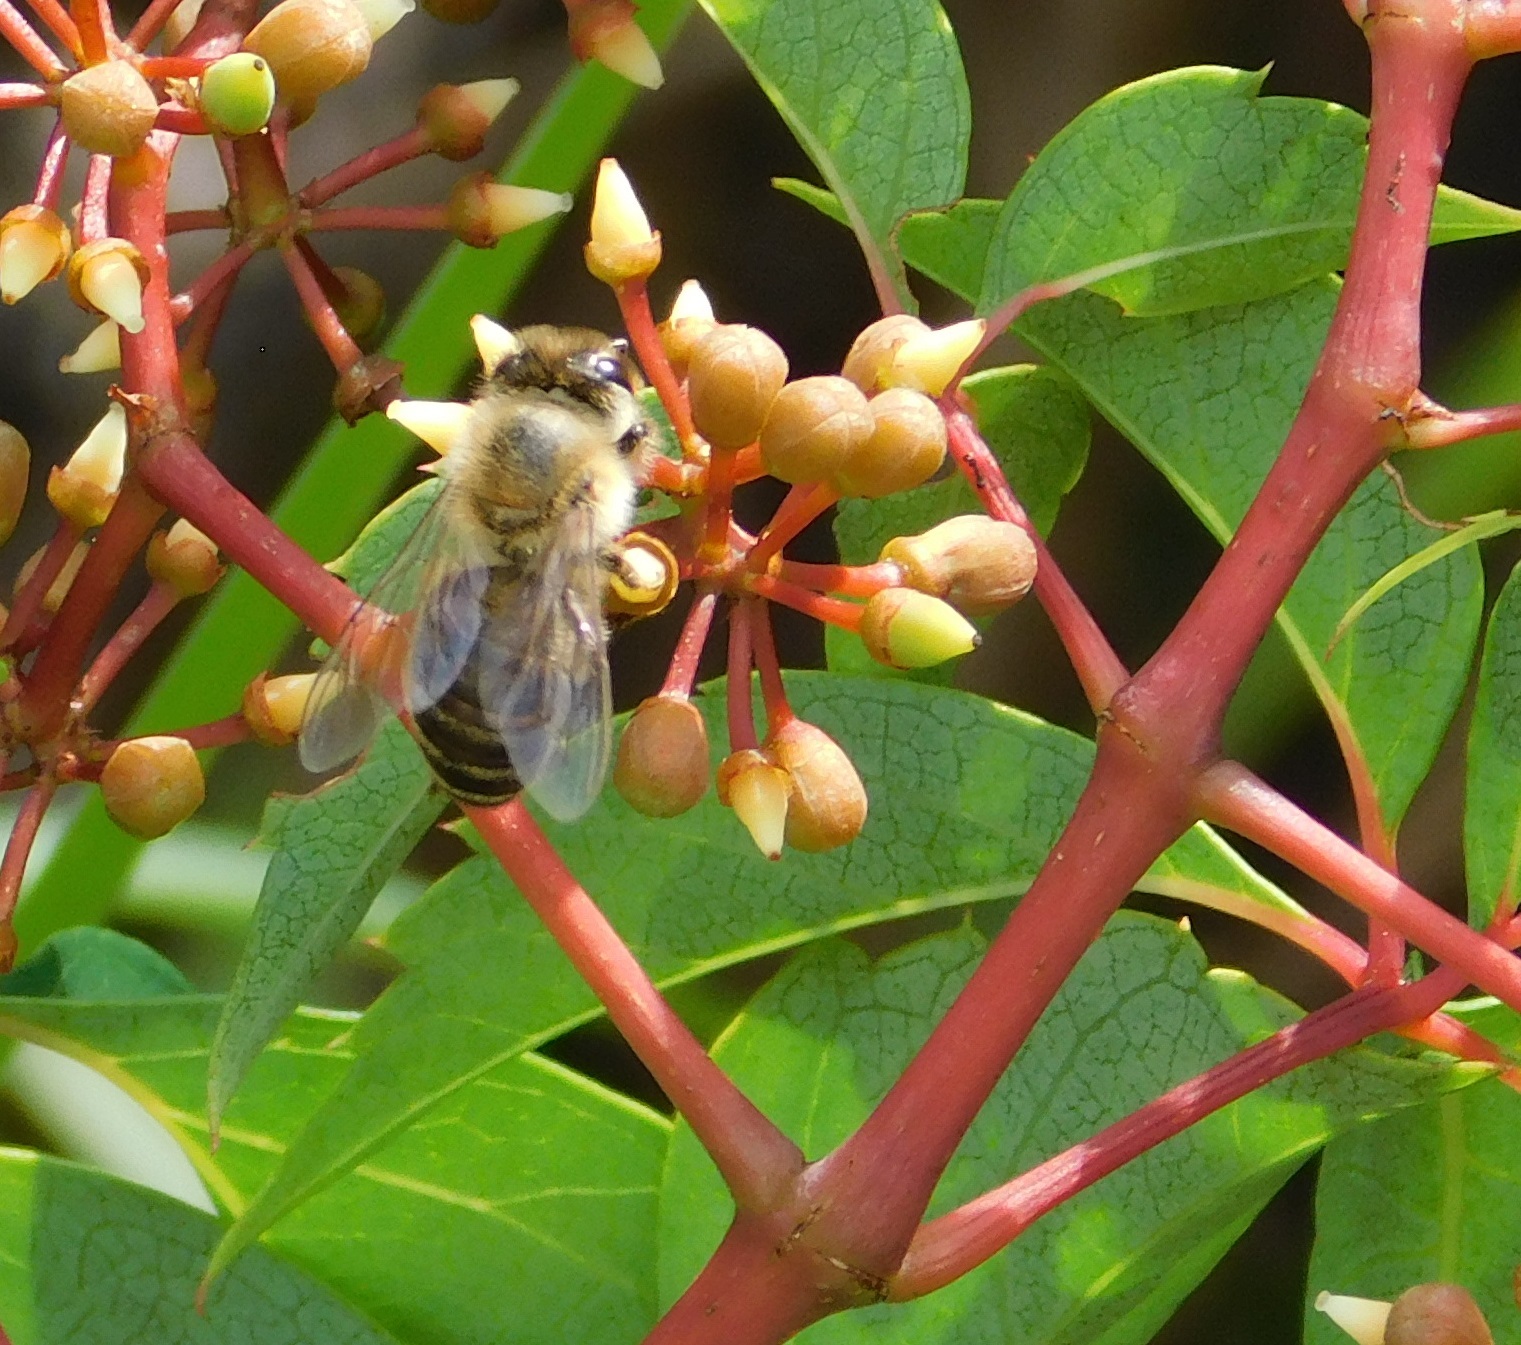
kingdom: Animalia
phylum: Arthropoda
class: Insecta
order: Hymenoptera
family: Apidae
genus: Apis
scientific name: Apis mellifera
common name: Honey bee
